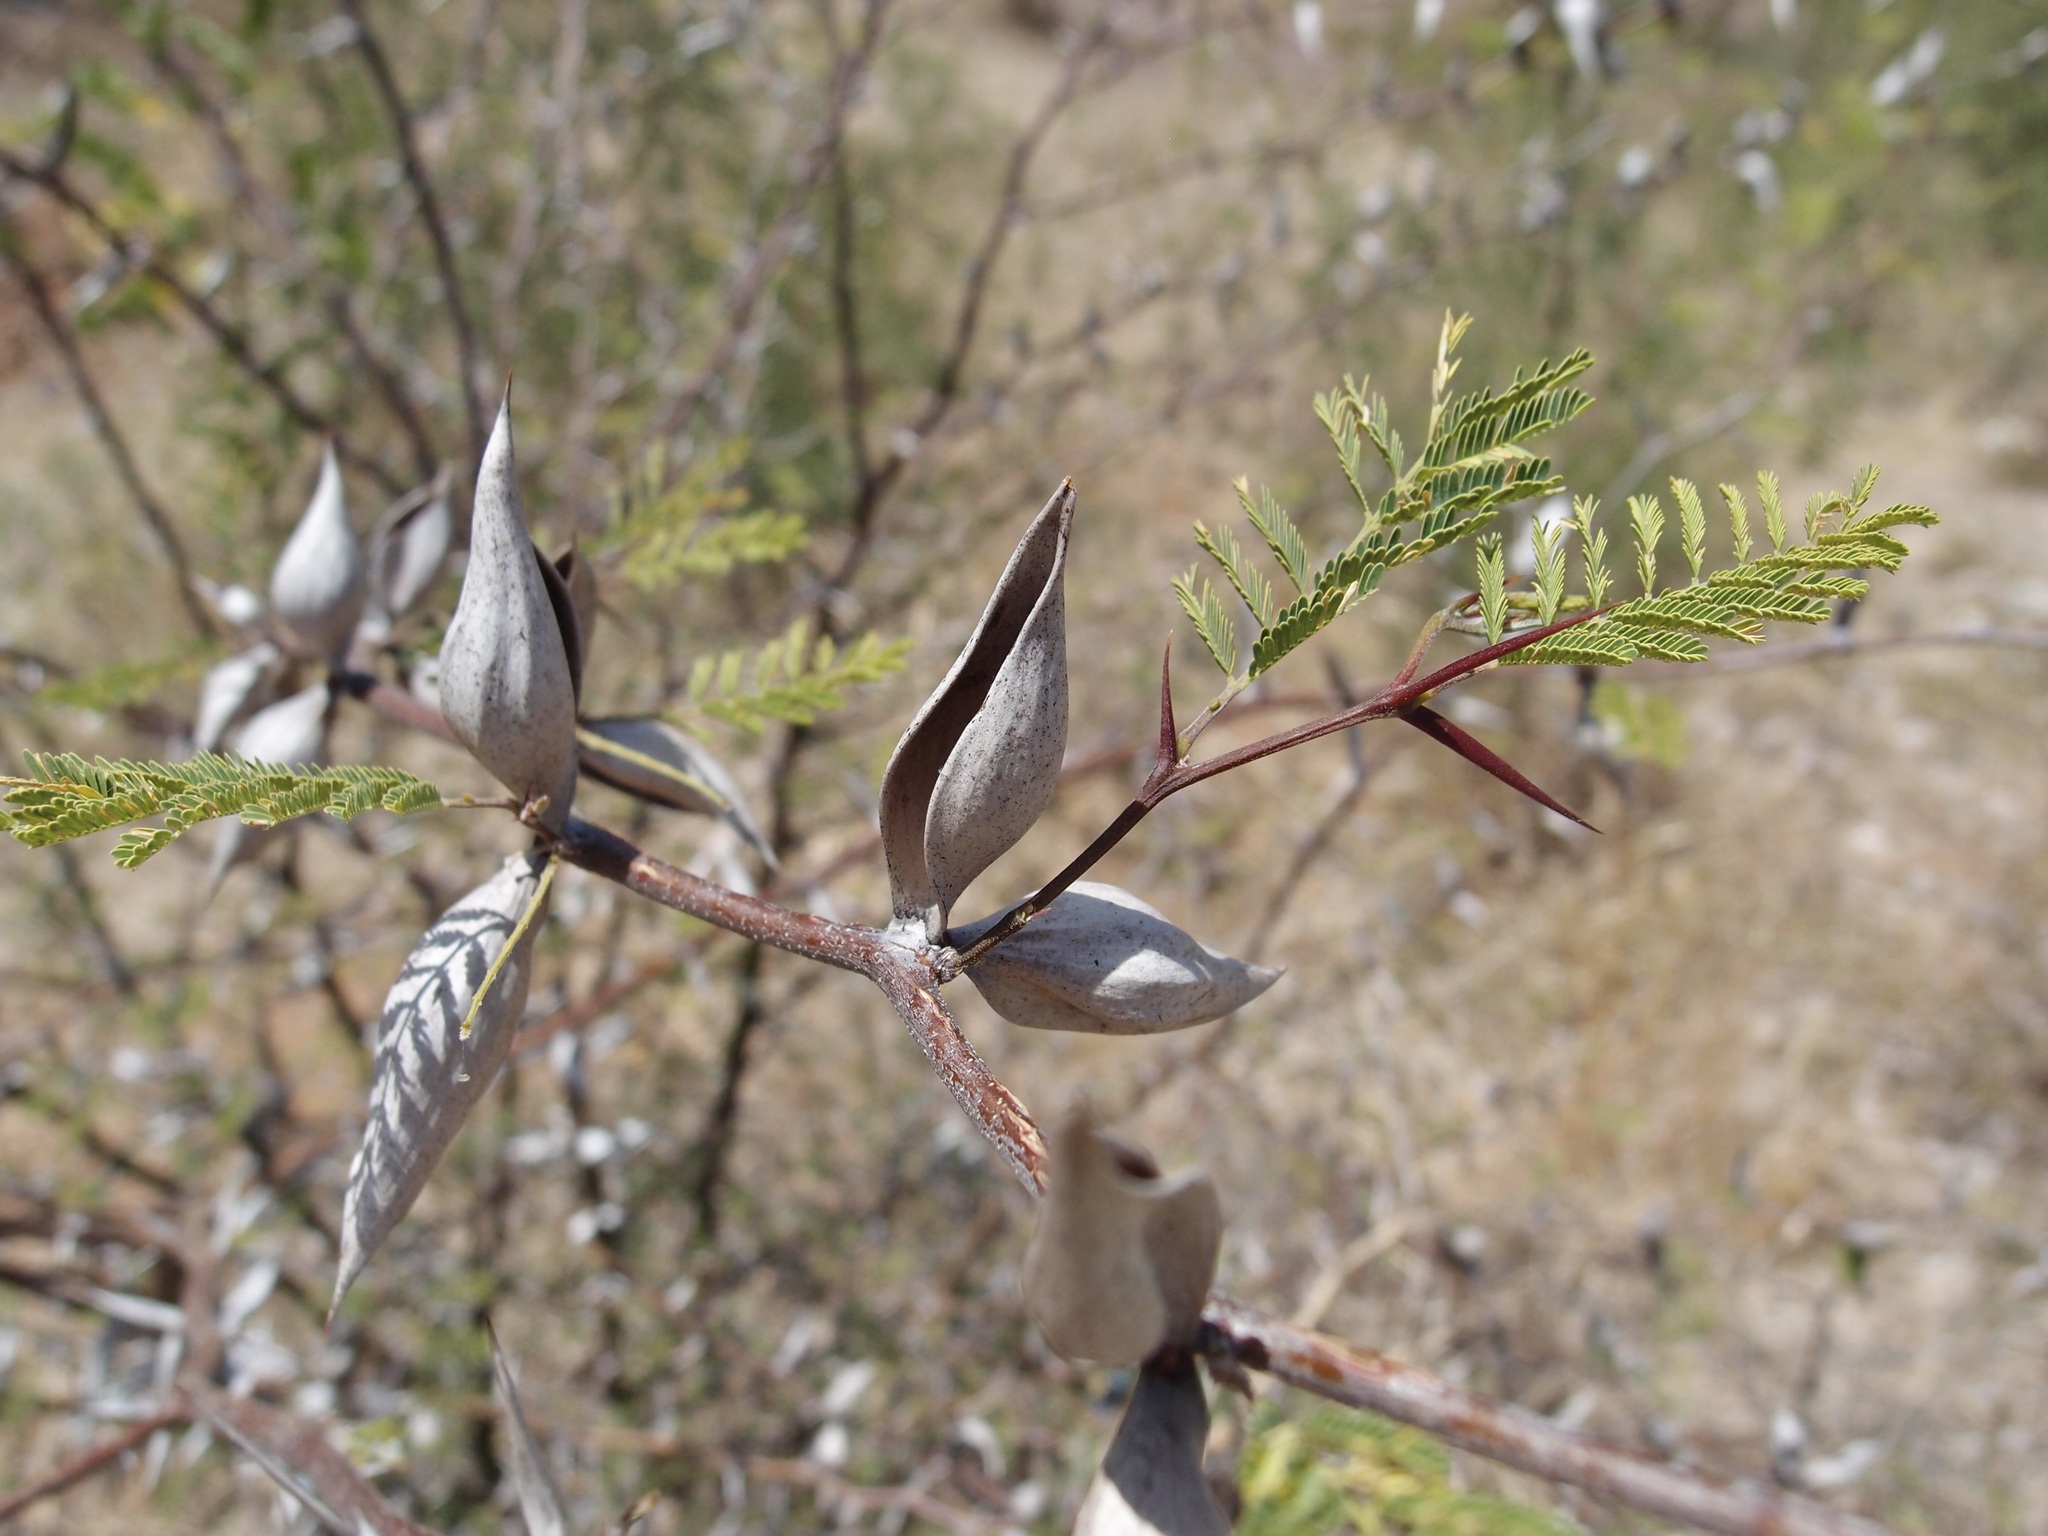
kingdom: Plantae
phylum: Tracheophyta
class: Magnoliopsida
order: Fabales
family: Fabaceae
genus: Vachellia
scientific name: Vachellia campechiana
